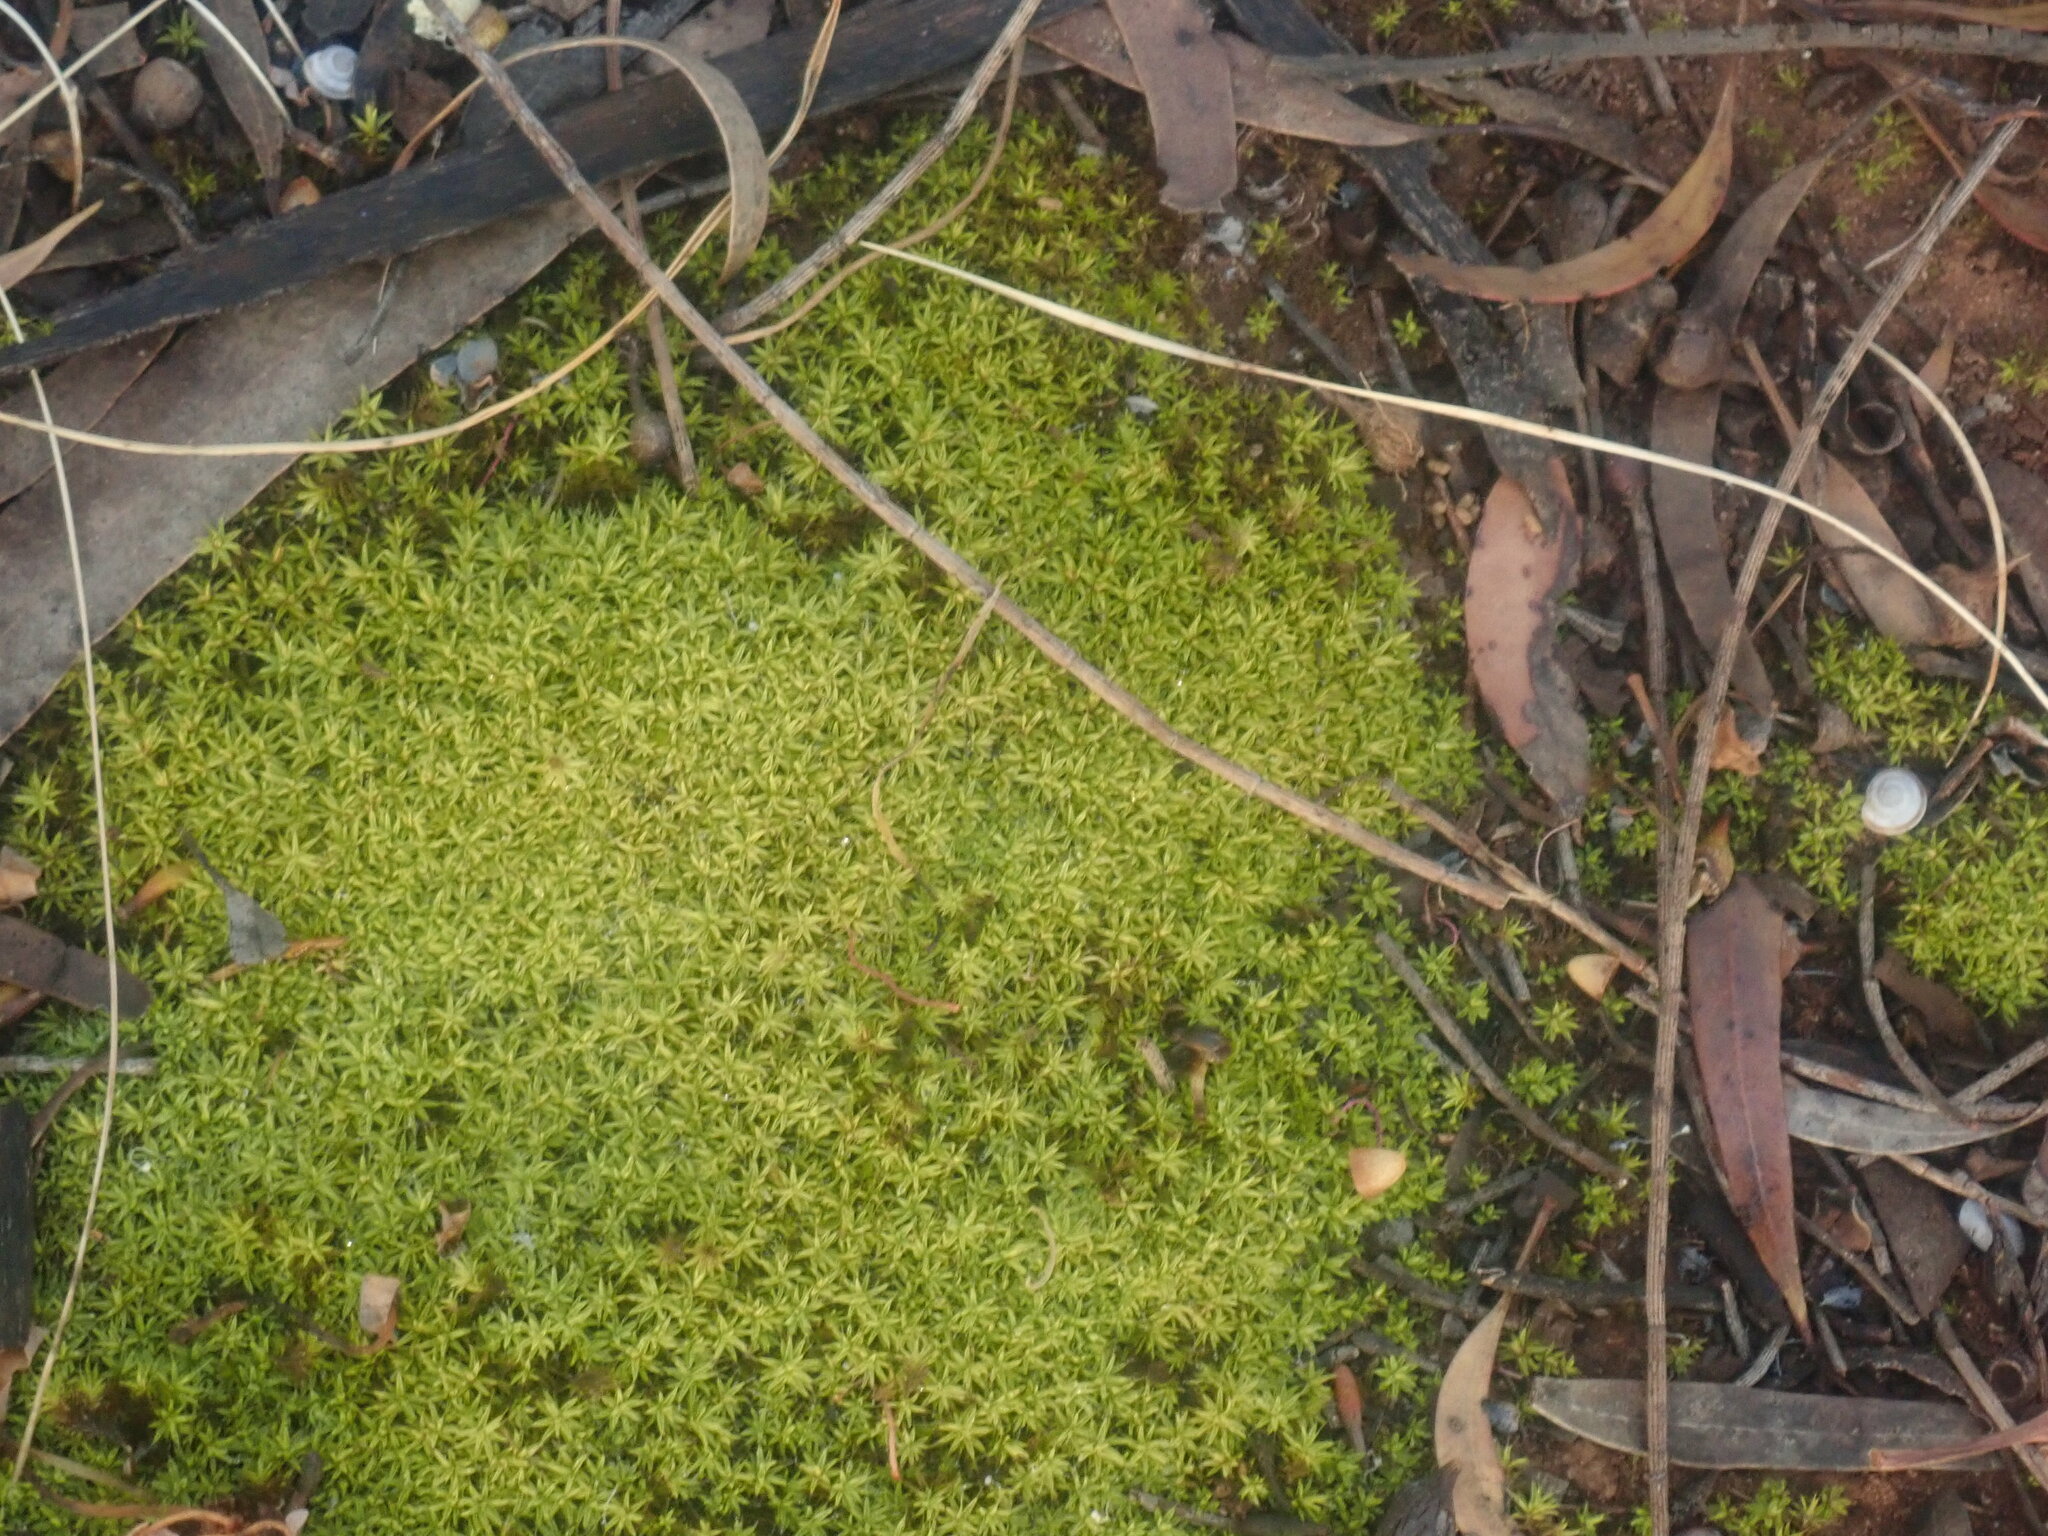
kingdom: Plantae
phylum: Bryophyta
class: Bryopsida
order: Pottiales
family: Pottiaceae
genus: Pseudocrossidium
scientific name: Pseudocrossidium crinitum
